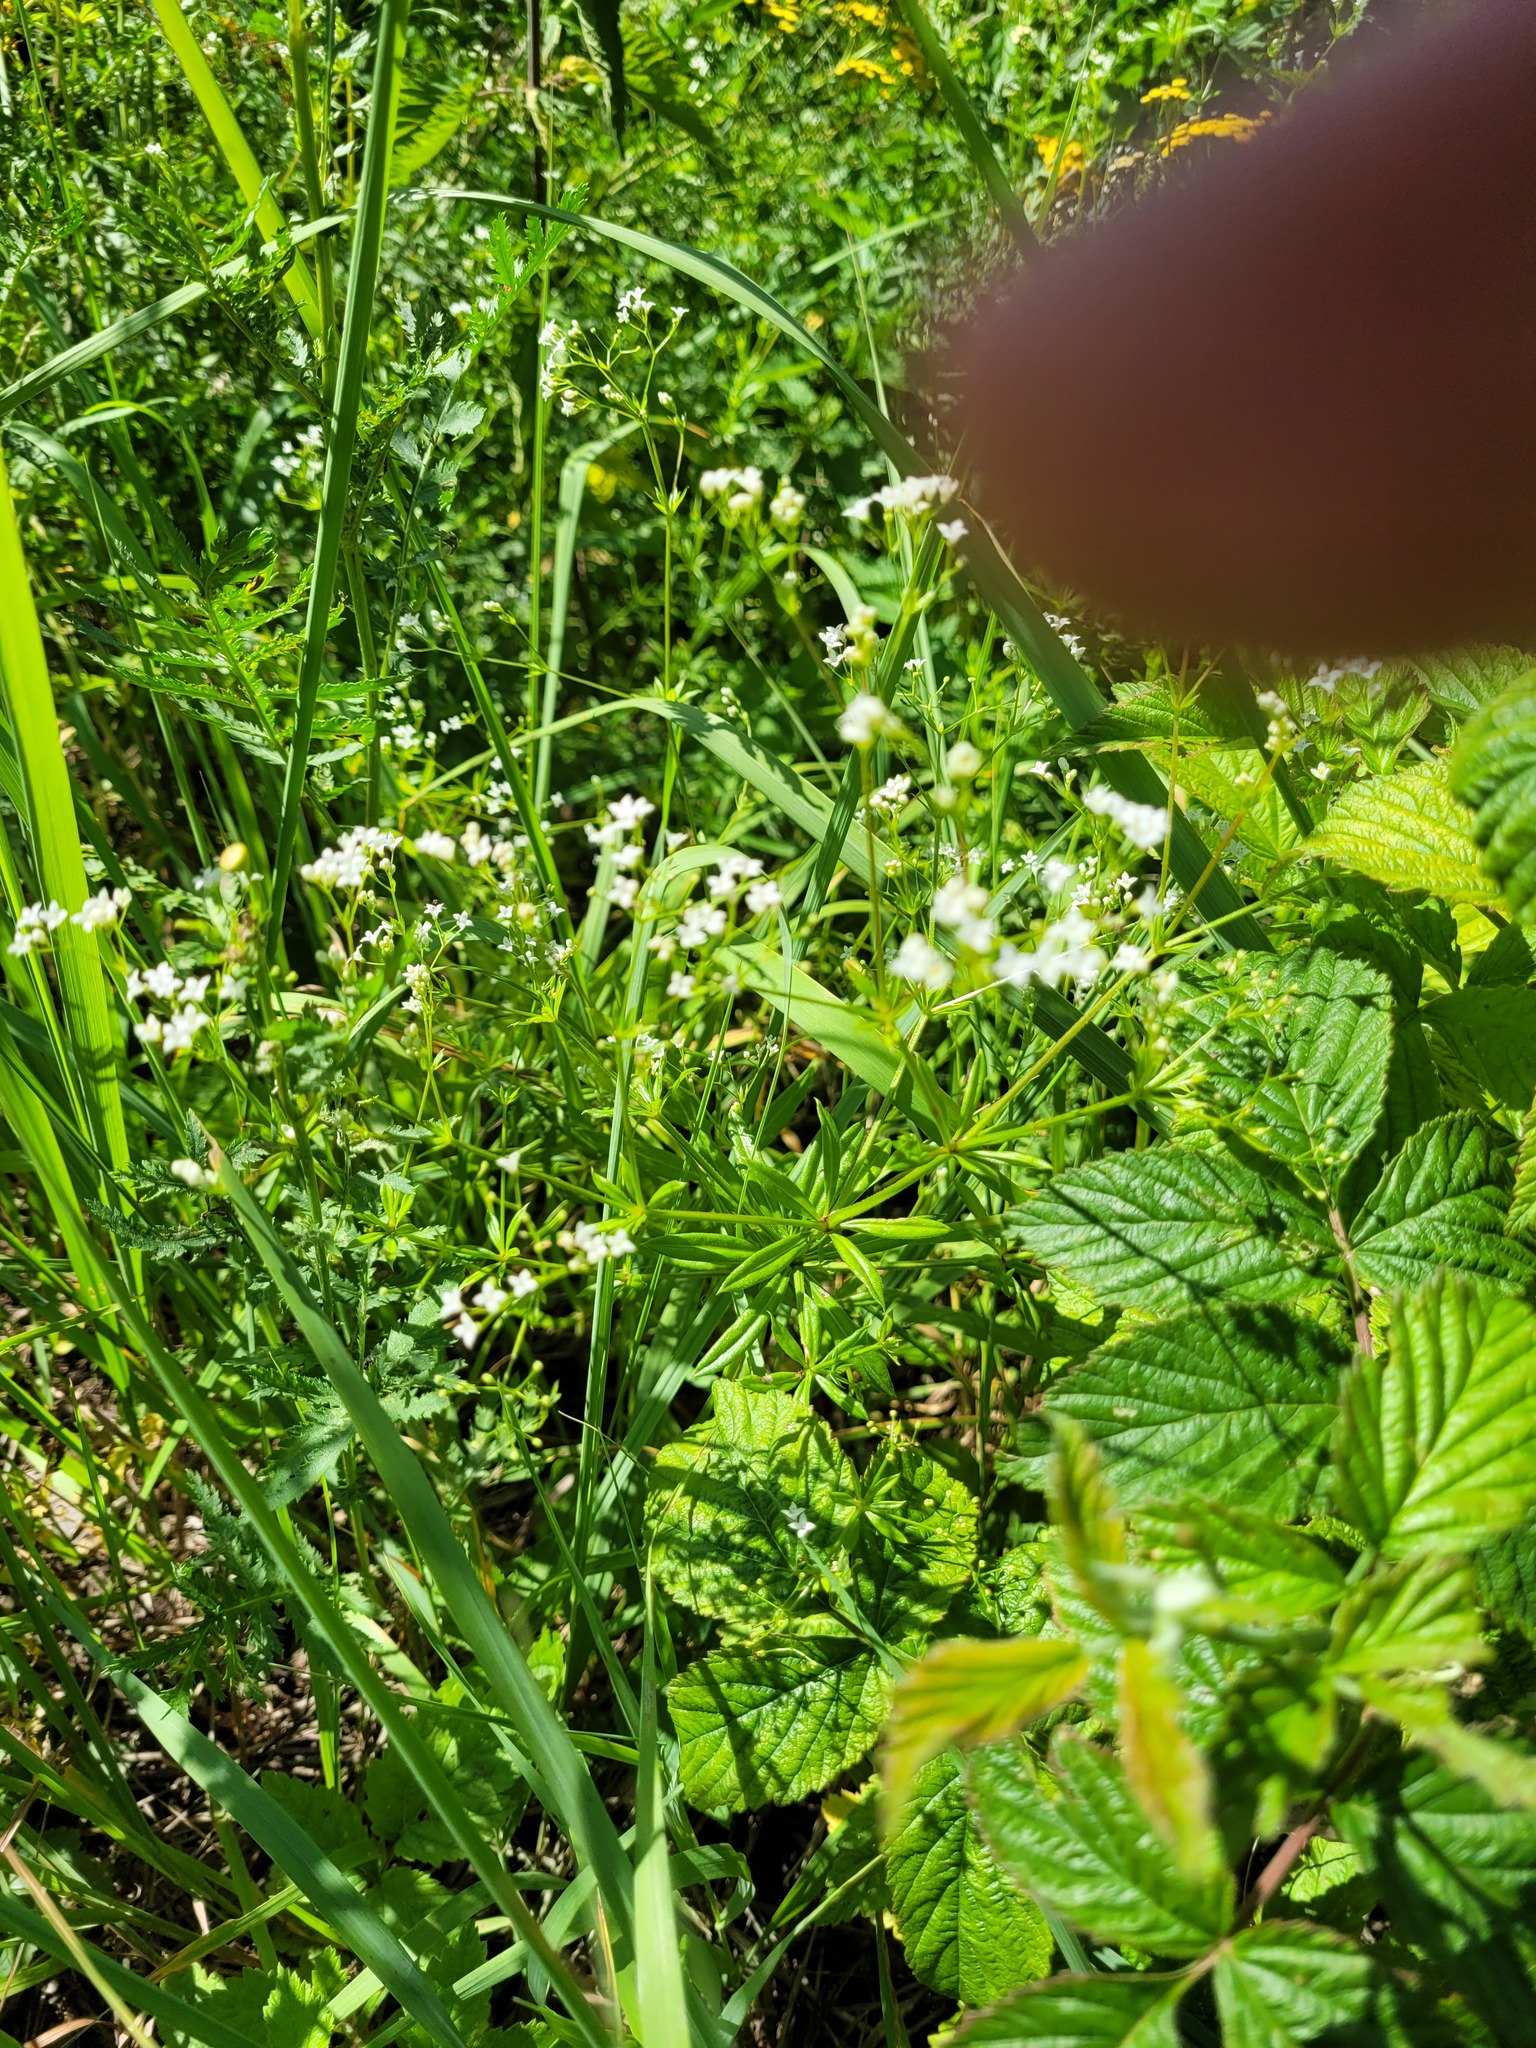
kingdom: Plantae
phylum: Tracheophyta
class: Magnoliopsida
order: Gentianales
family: Rubiaceae
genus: Galium
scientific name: Galium rivale
